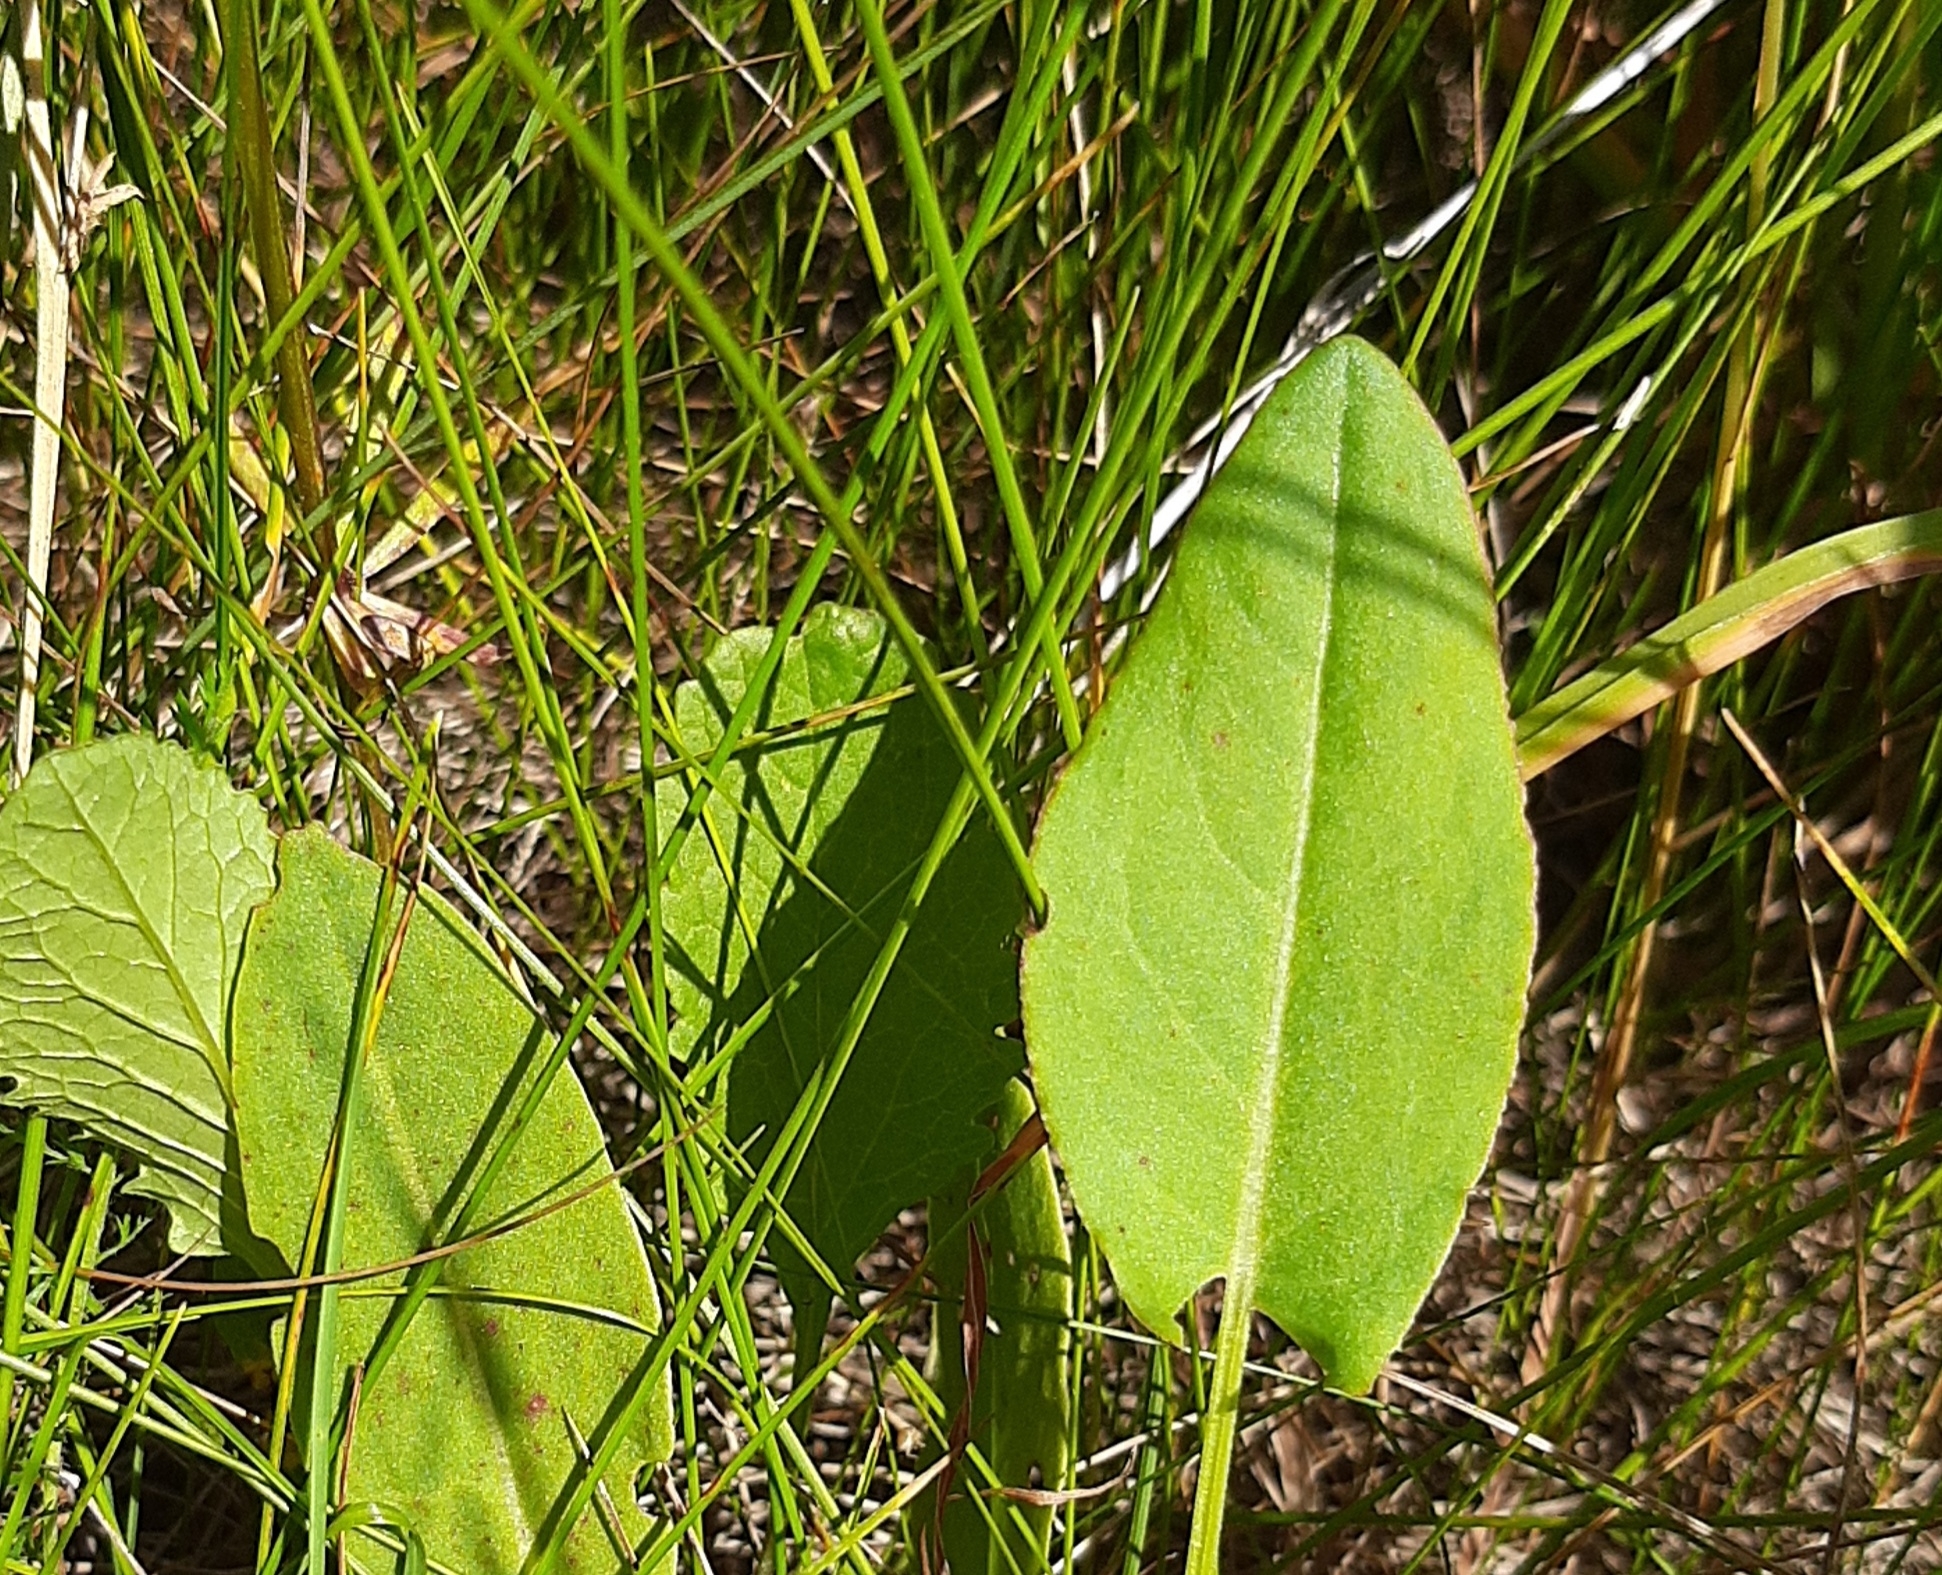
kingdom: Plantae
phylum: Tracheophyta
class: Magnoliopsida
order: Caryophyllales
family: Polygonaceae
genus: Rumex
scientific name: Rumex thyrsiflorus
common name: Garden sorrel
